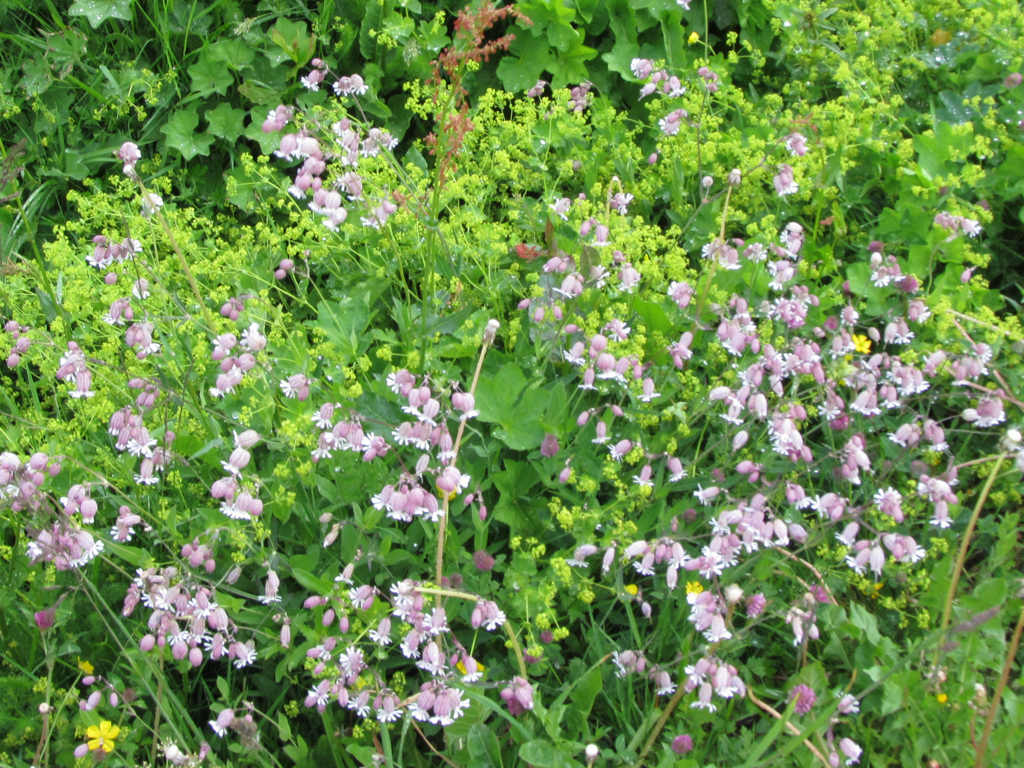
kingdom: Plantae
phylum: Tracheophyta
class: Magnoliopsida
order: Caryophyllales
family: Caryophyllaceae
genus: Silene
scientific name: Silene vulgaris
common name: Bladder campion
